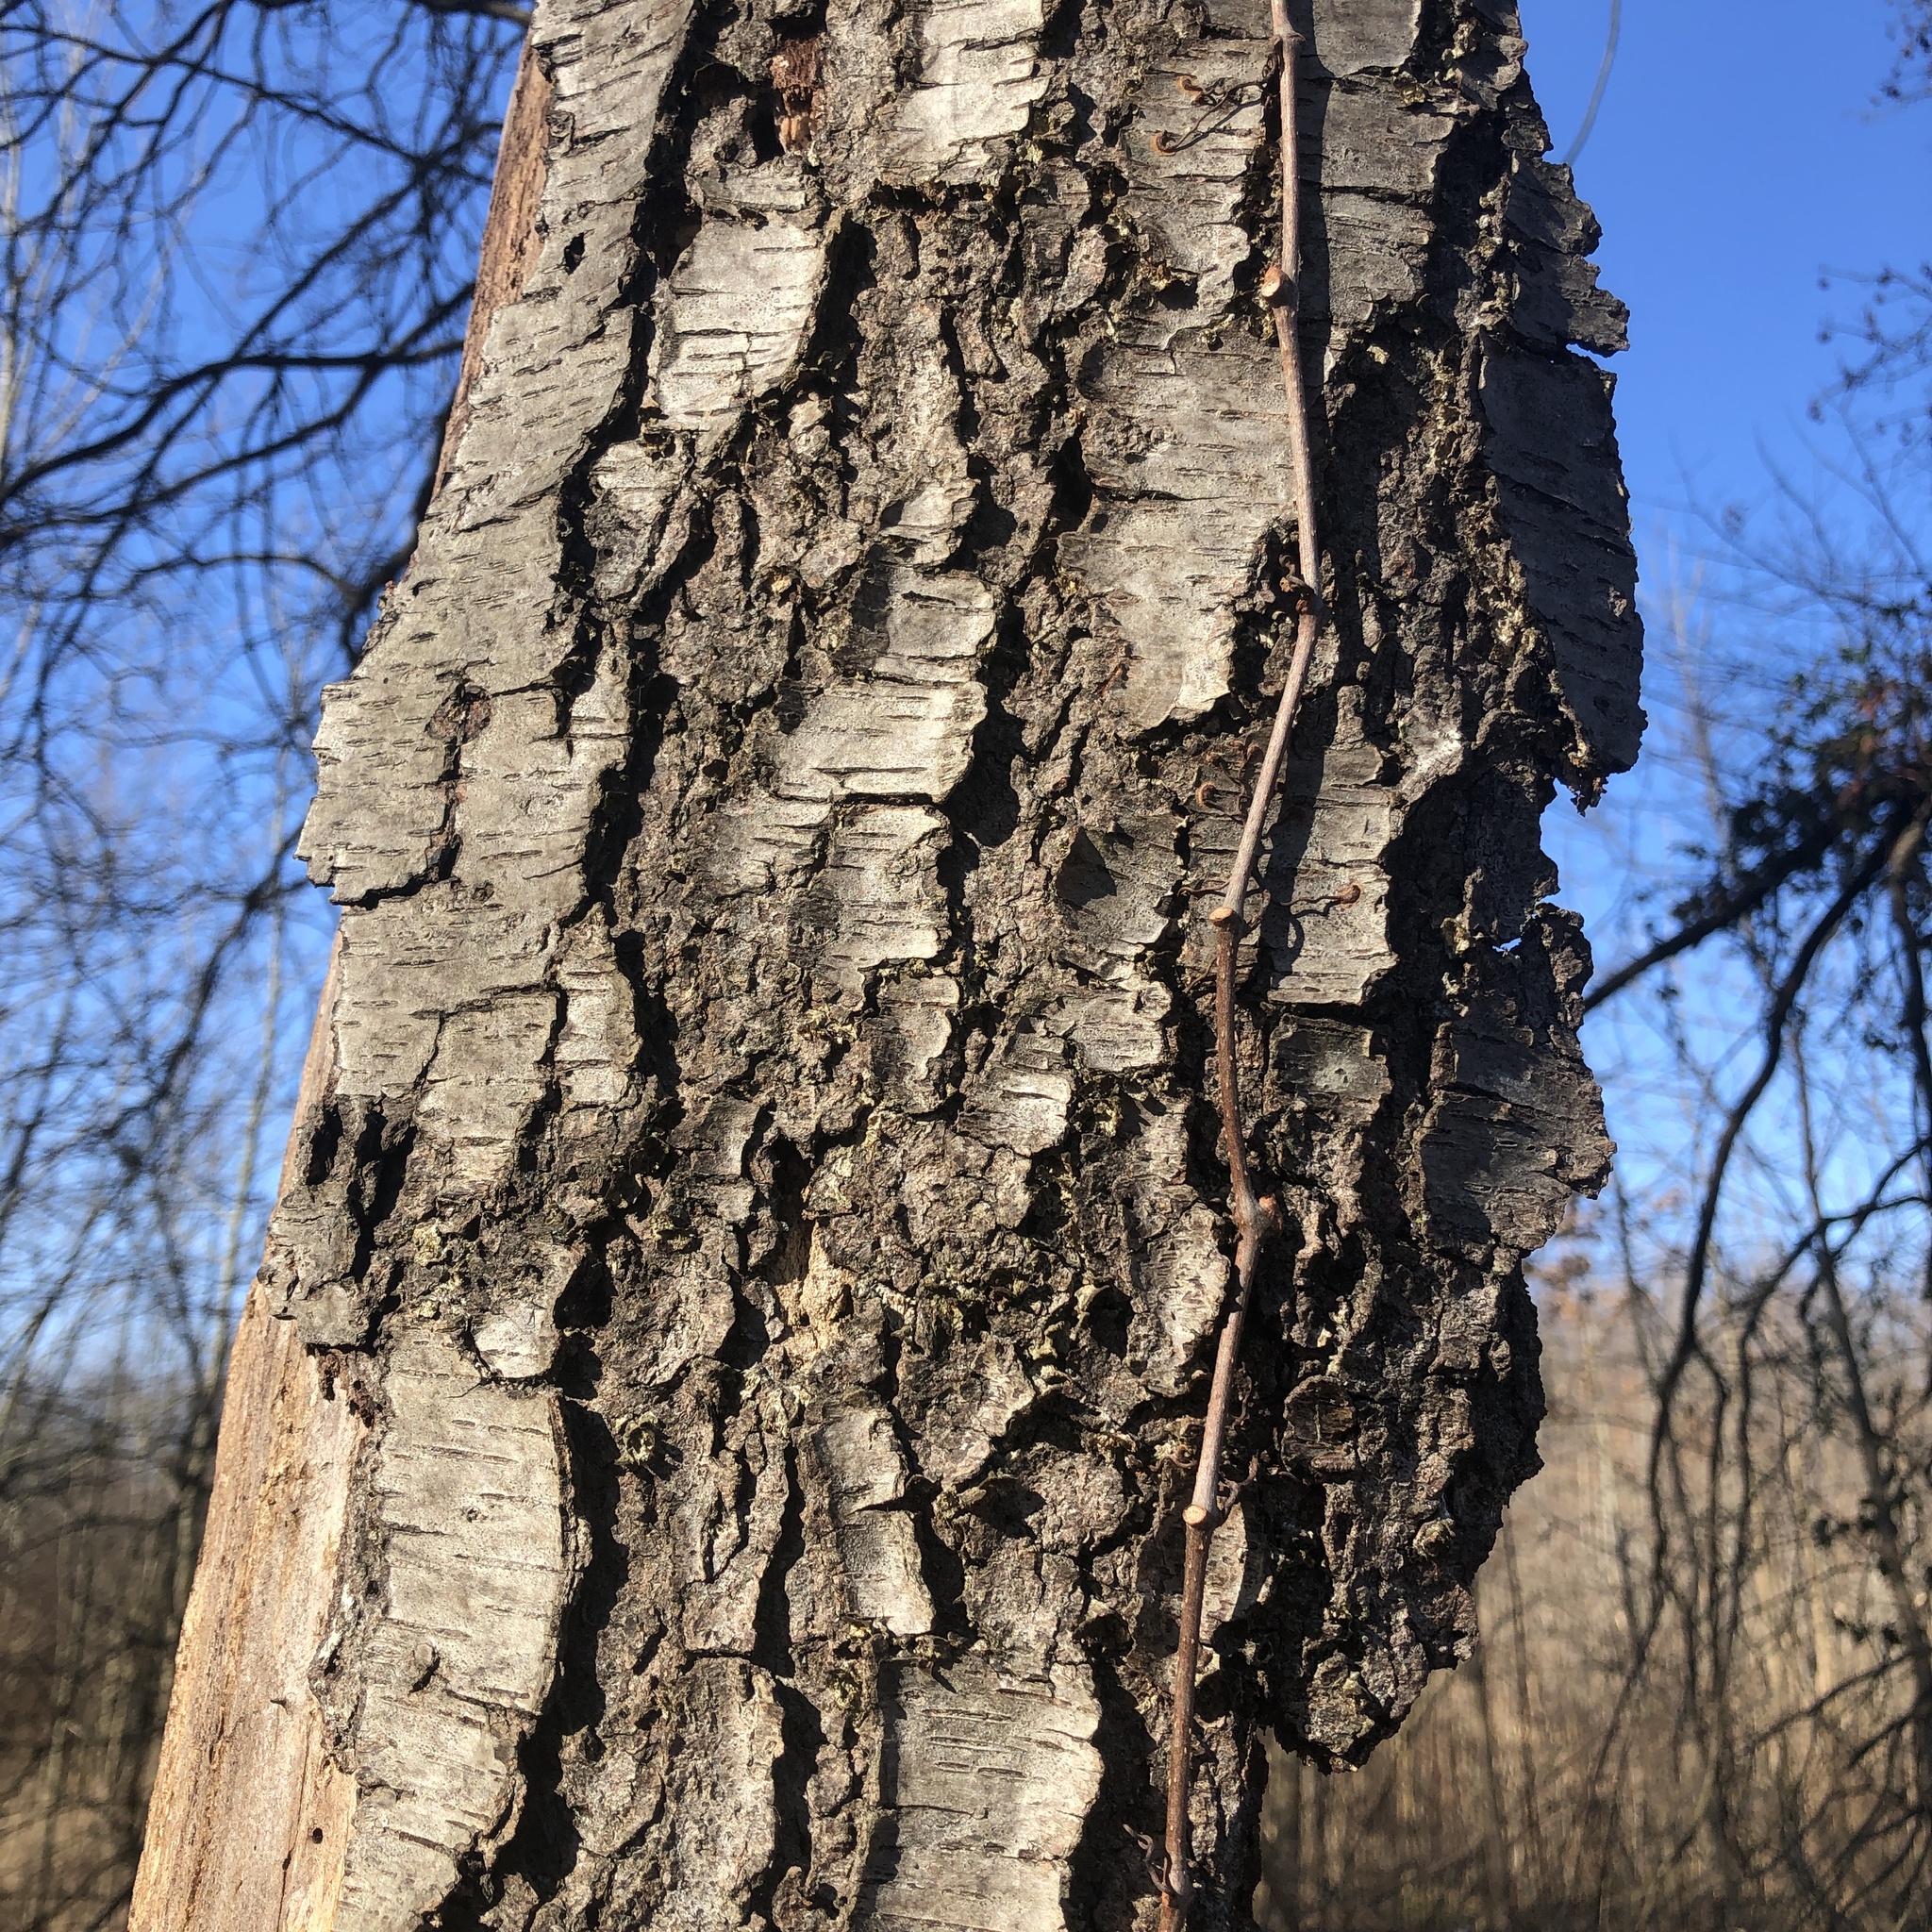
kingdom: Plantae
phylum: Tracheophyta
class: Magnoliopsida
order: Rosales
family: Rosaceae
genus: Prunus
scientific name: Prunus serotina
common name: Black cherry
